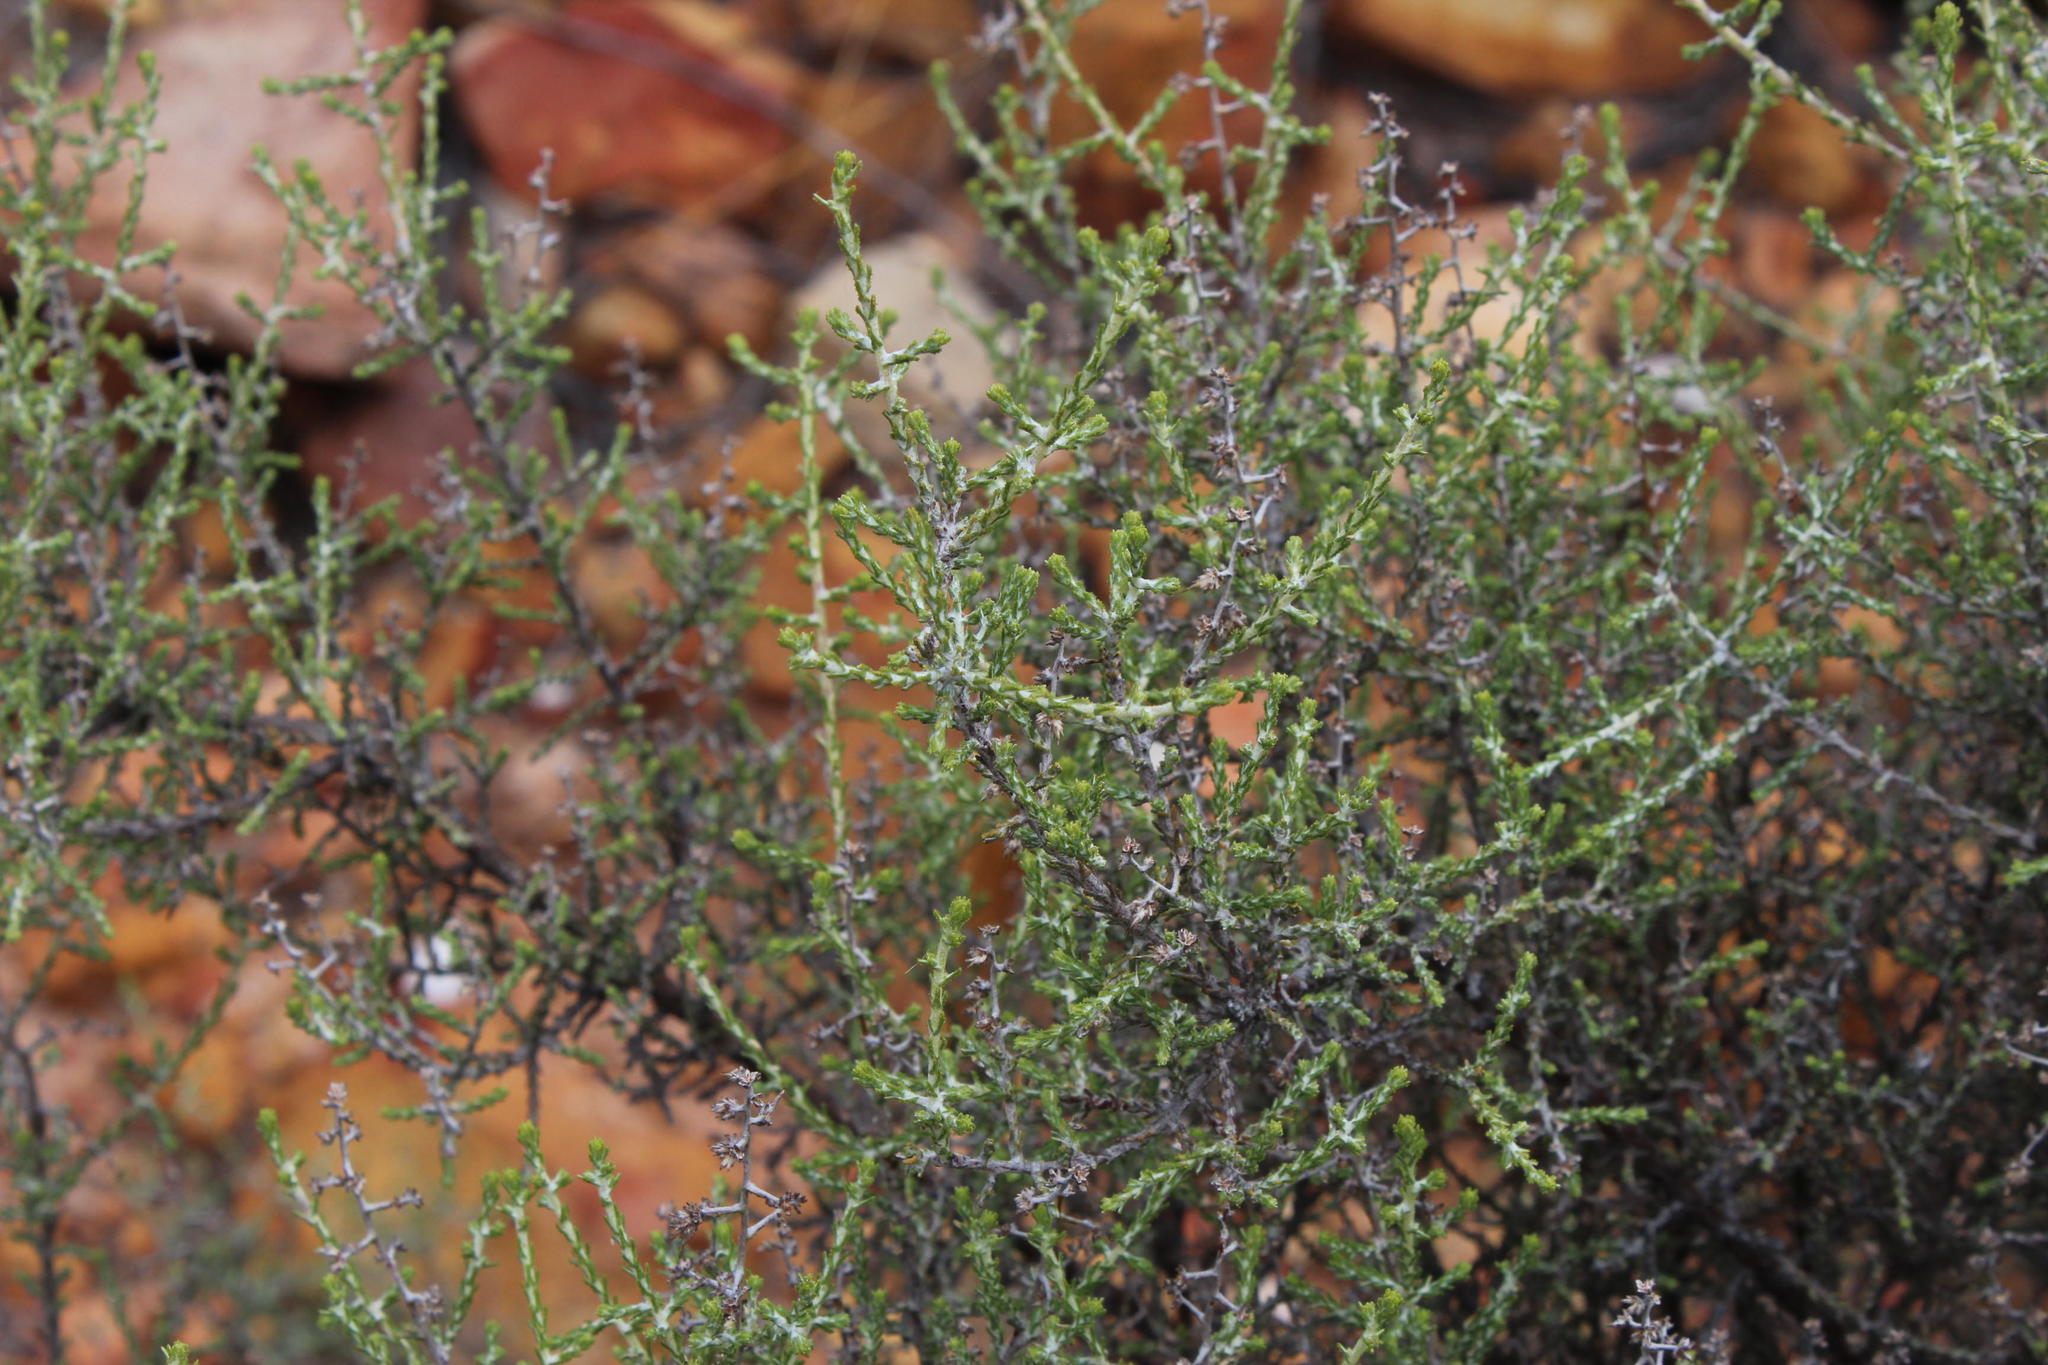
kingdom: Plantae
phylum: Tracheophyta
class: Magnoliopsida
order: Asterales
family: Asteraceae
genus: Seriphium
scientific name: Seriphium plumosum
